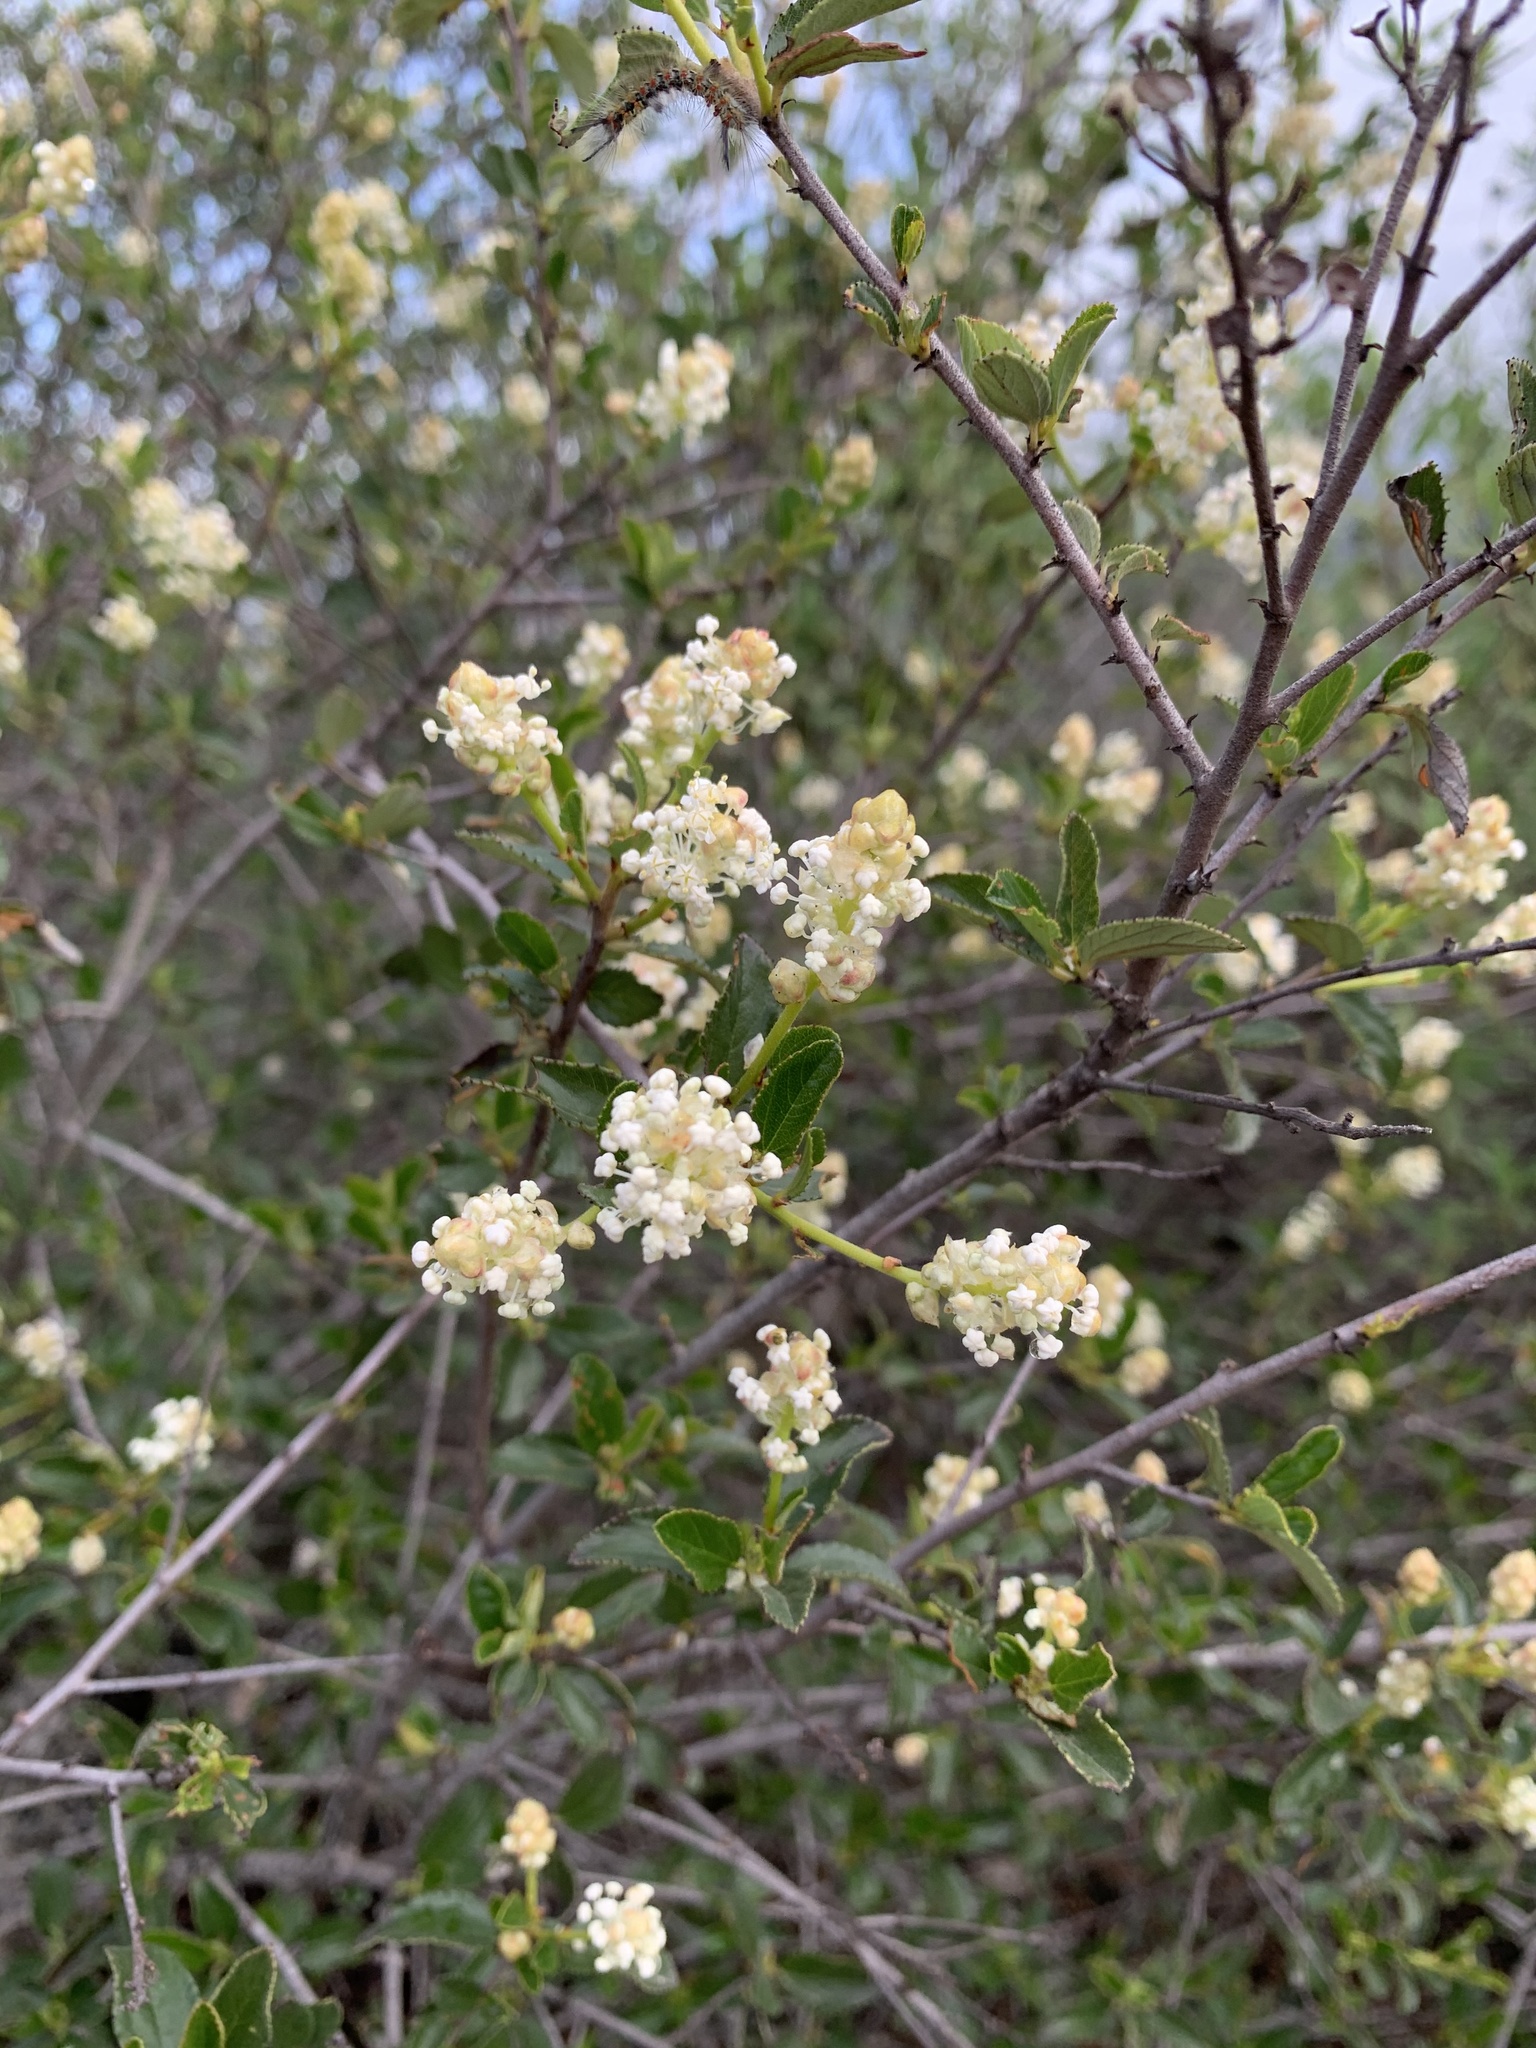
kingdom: Plantae
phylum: Tracheophyta
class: Magnoliopsida
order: Rosales
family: Rhamnaceae
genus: Ceanothus
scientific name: Ceanothus tomentosus
